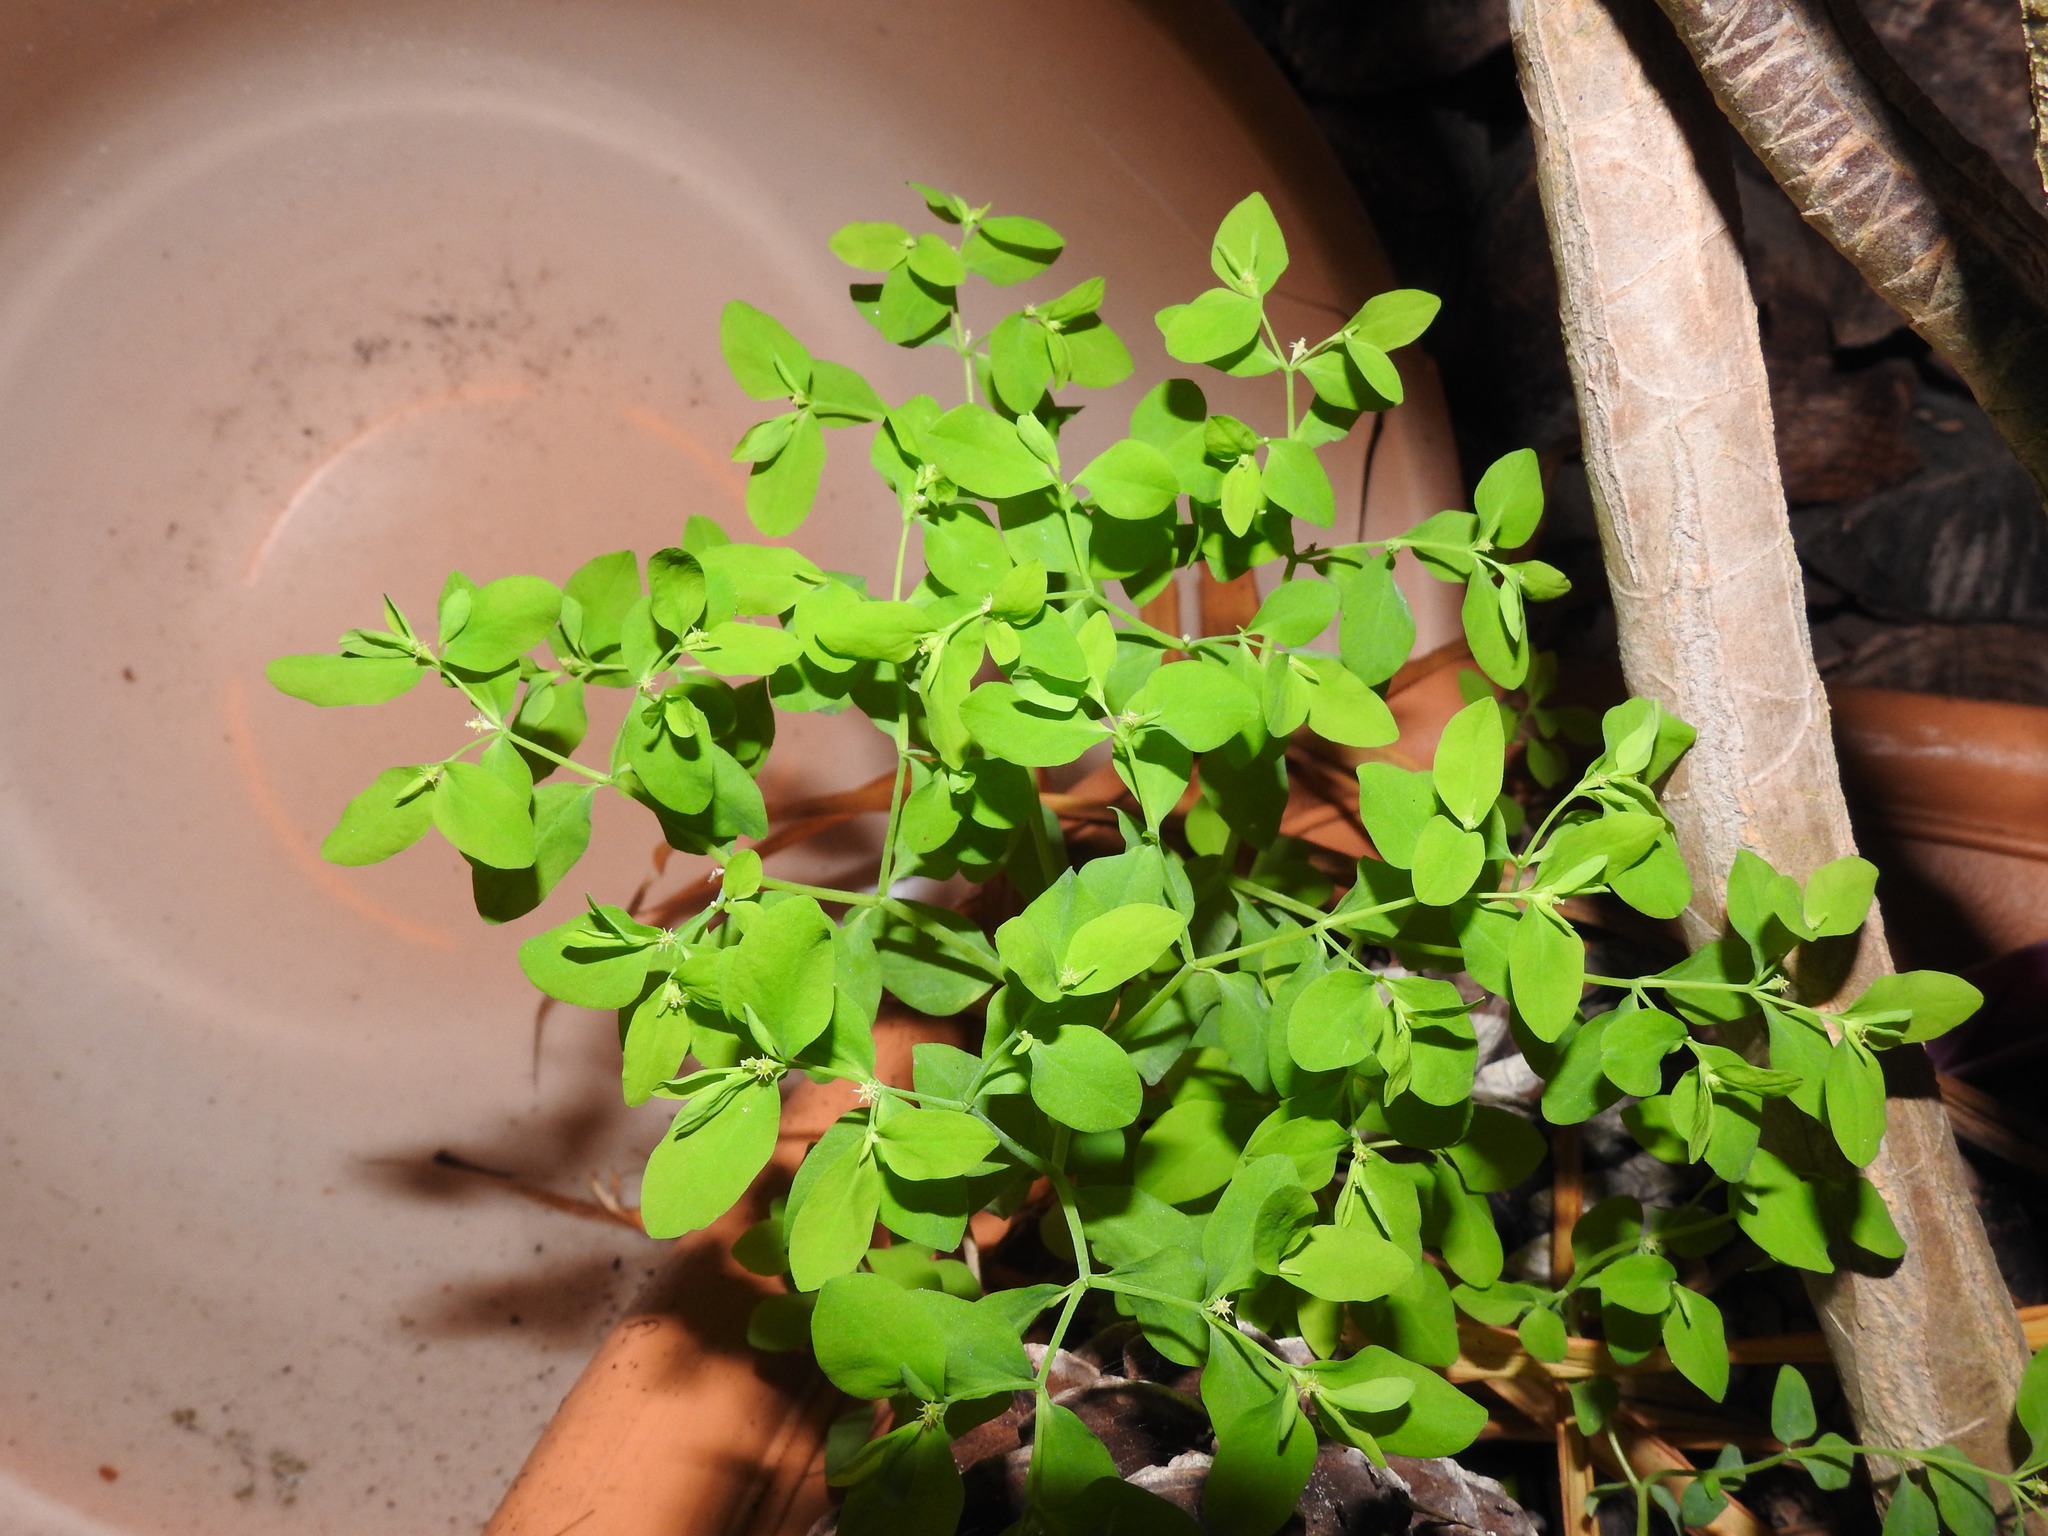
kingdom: Plantae
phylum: Tracheophyta
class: Magnoliopsida
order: Malpighiales
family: Euphorbiaceae
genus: Euphorbia
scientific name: Euphorbia peplus
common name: Petty spurge
